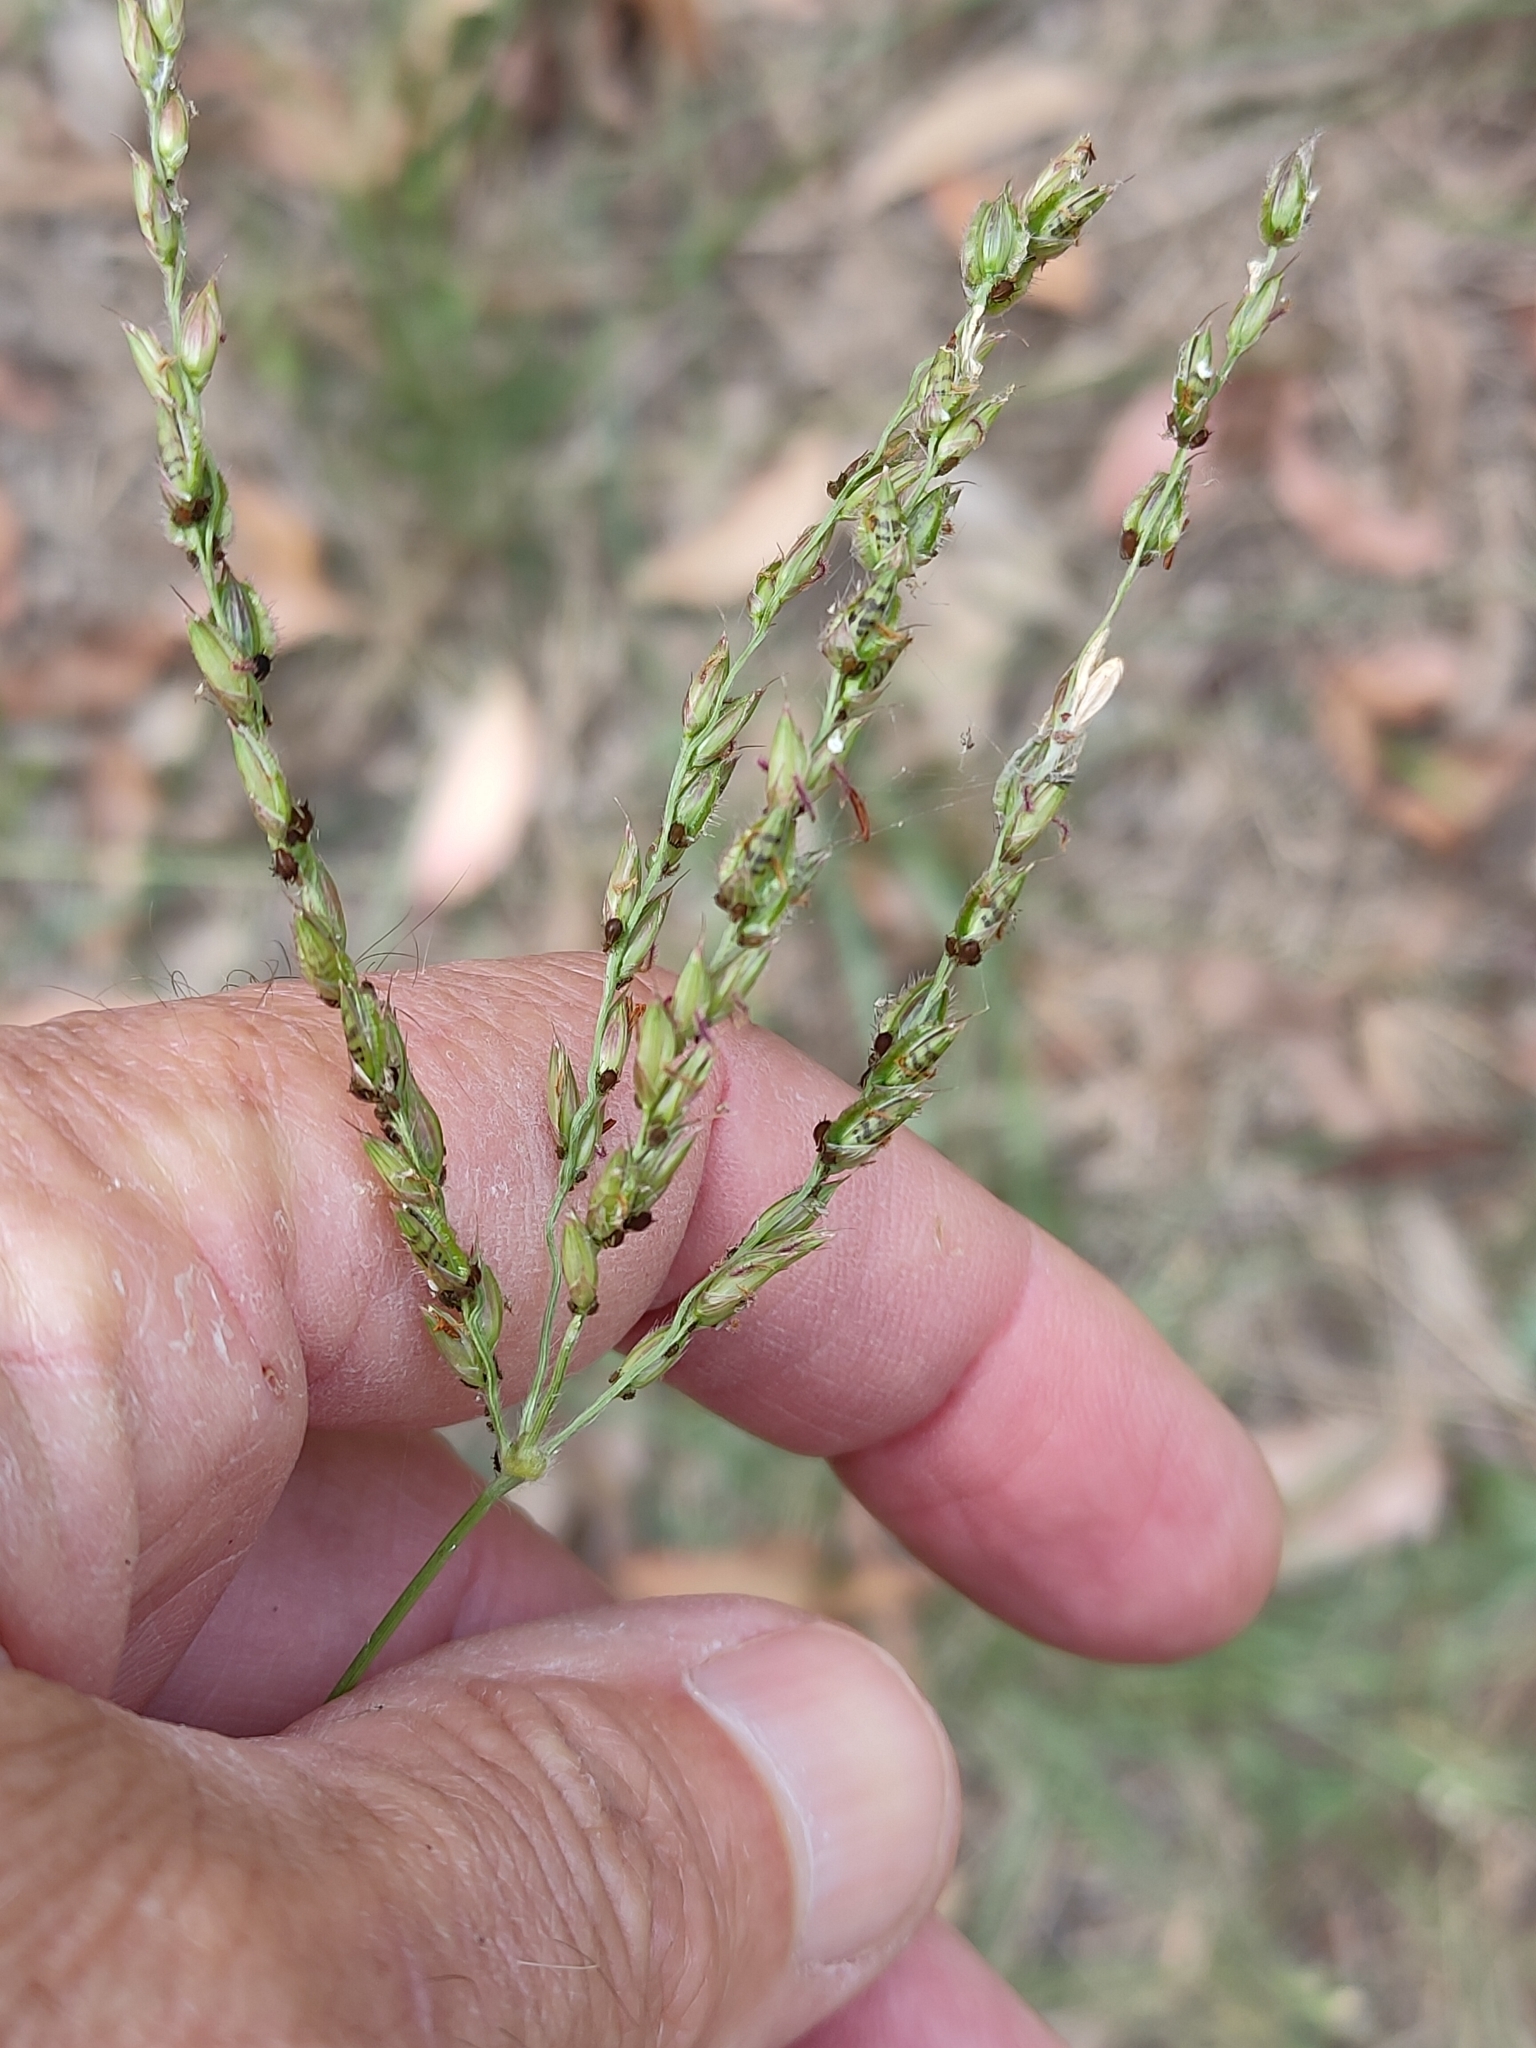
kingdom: Plantae
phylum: Tracheophyta
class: Liliopsida
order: Poales
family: Poaceae
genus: Alloteropsis
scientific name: Alloteropsis semialata
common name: Cockatoo grass
